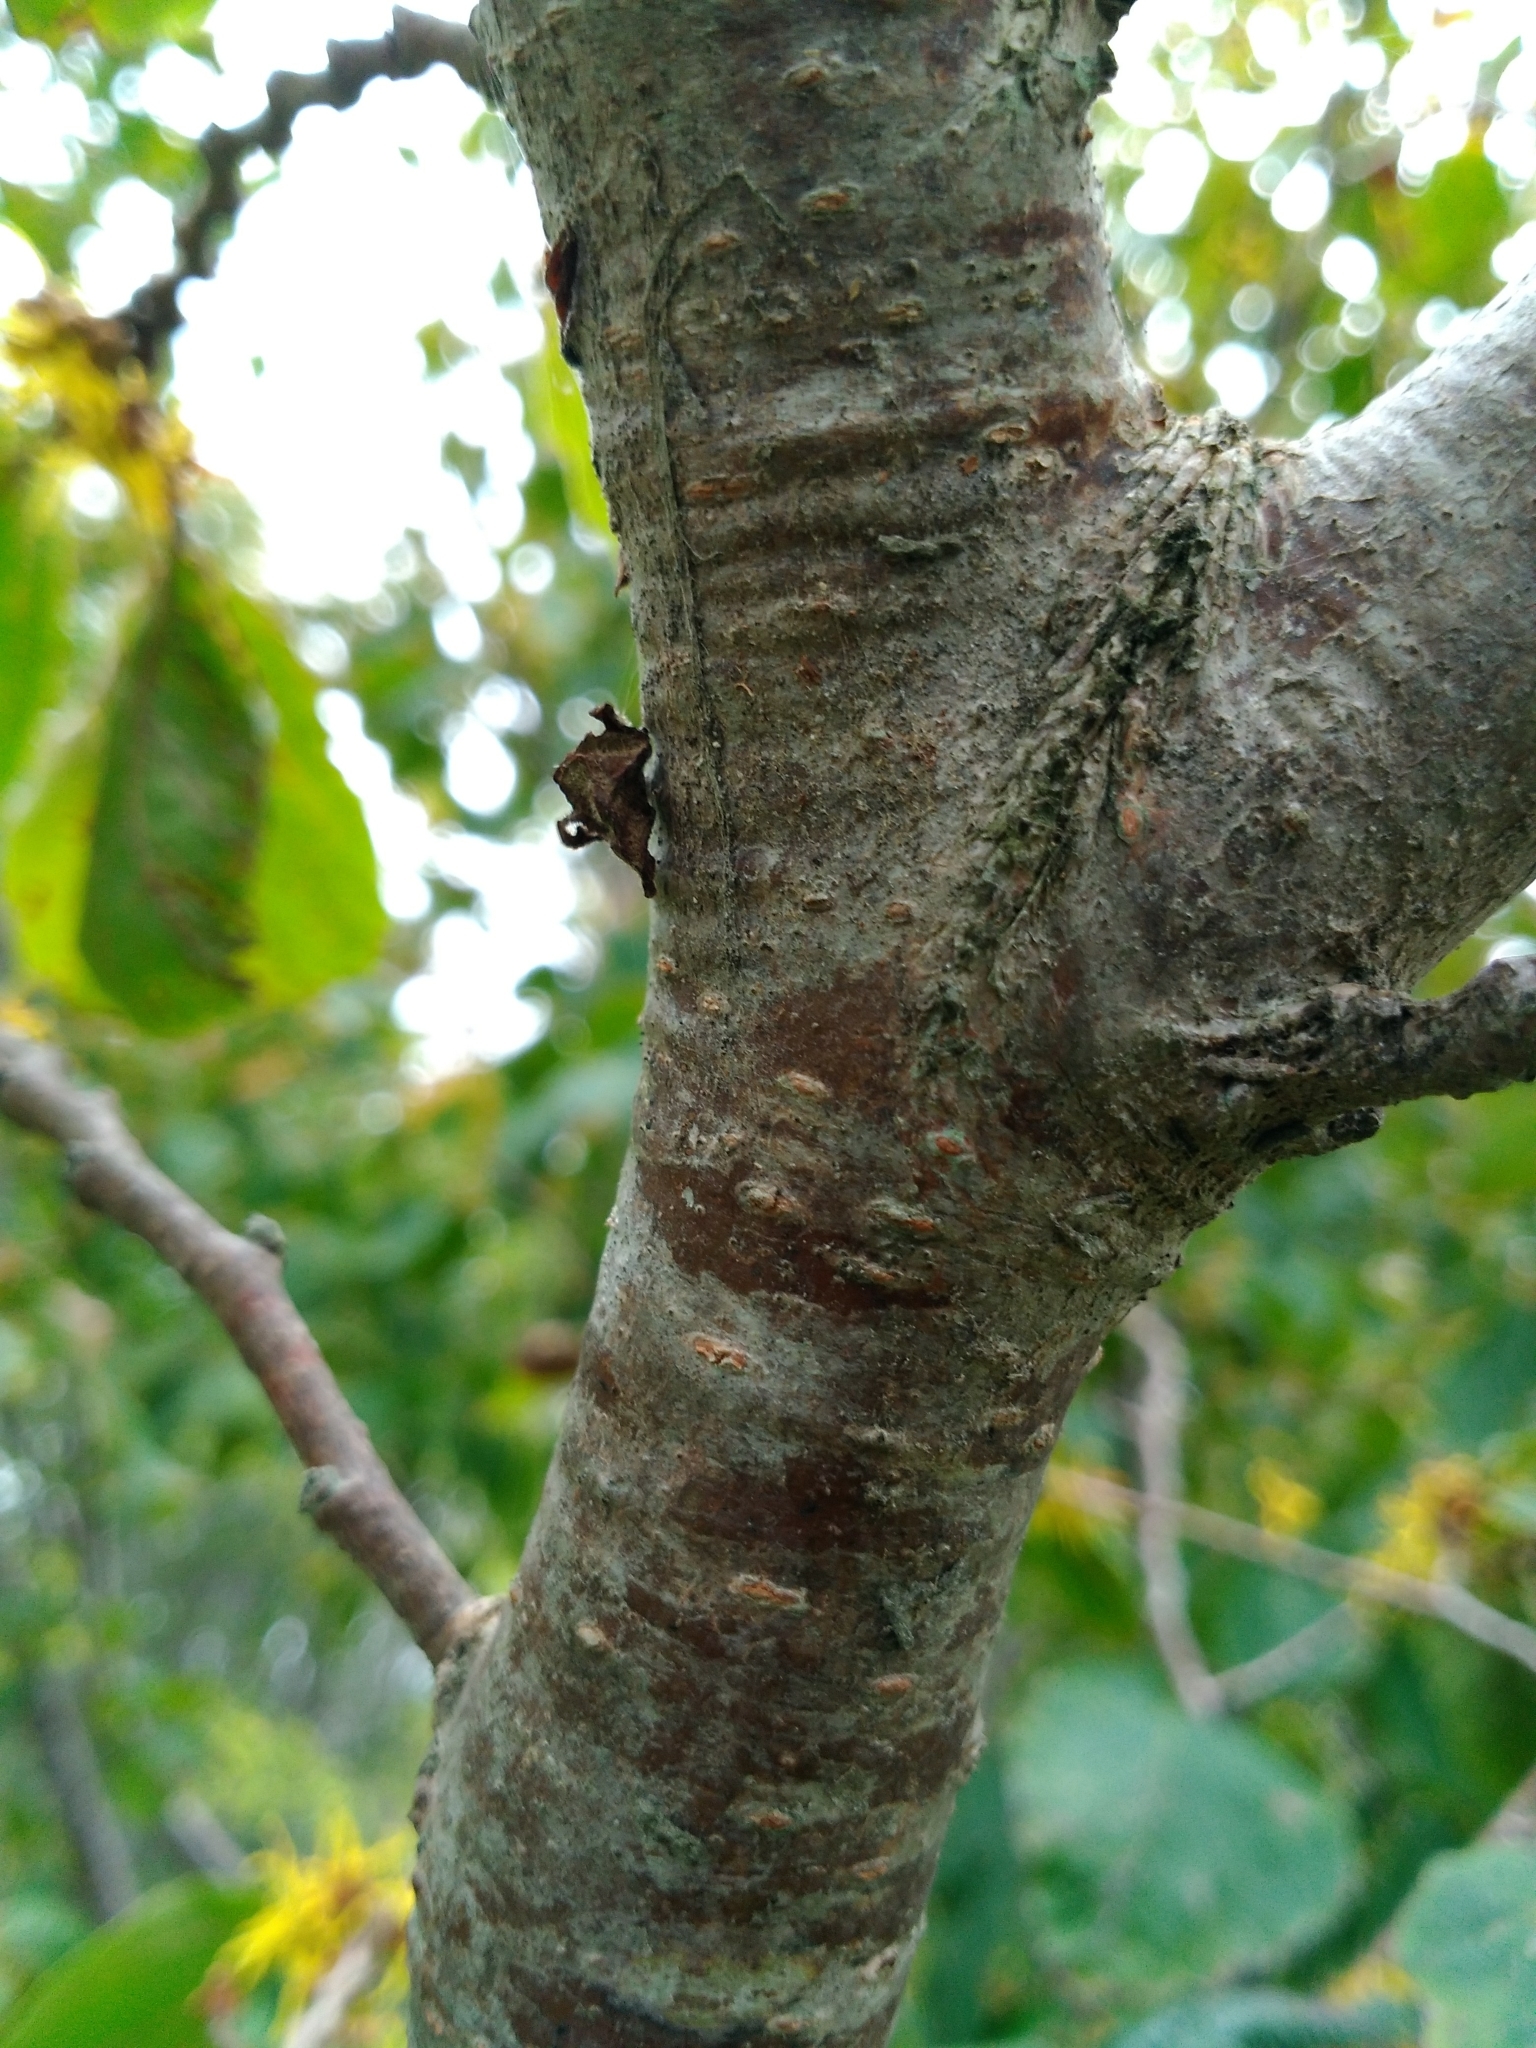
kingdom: Plantae
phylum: Tracheophyta
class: Magnoliopsida
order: Saxifragales
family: Hamamelidaceae
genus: Hamamelis
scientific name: Hamamelis virginiana
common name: Witch-hazel
